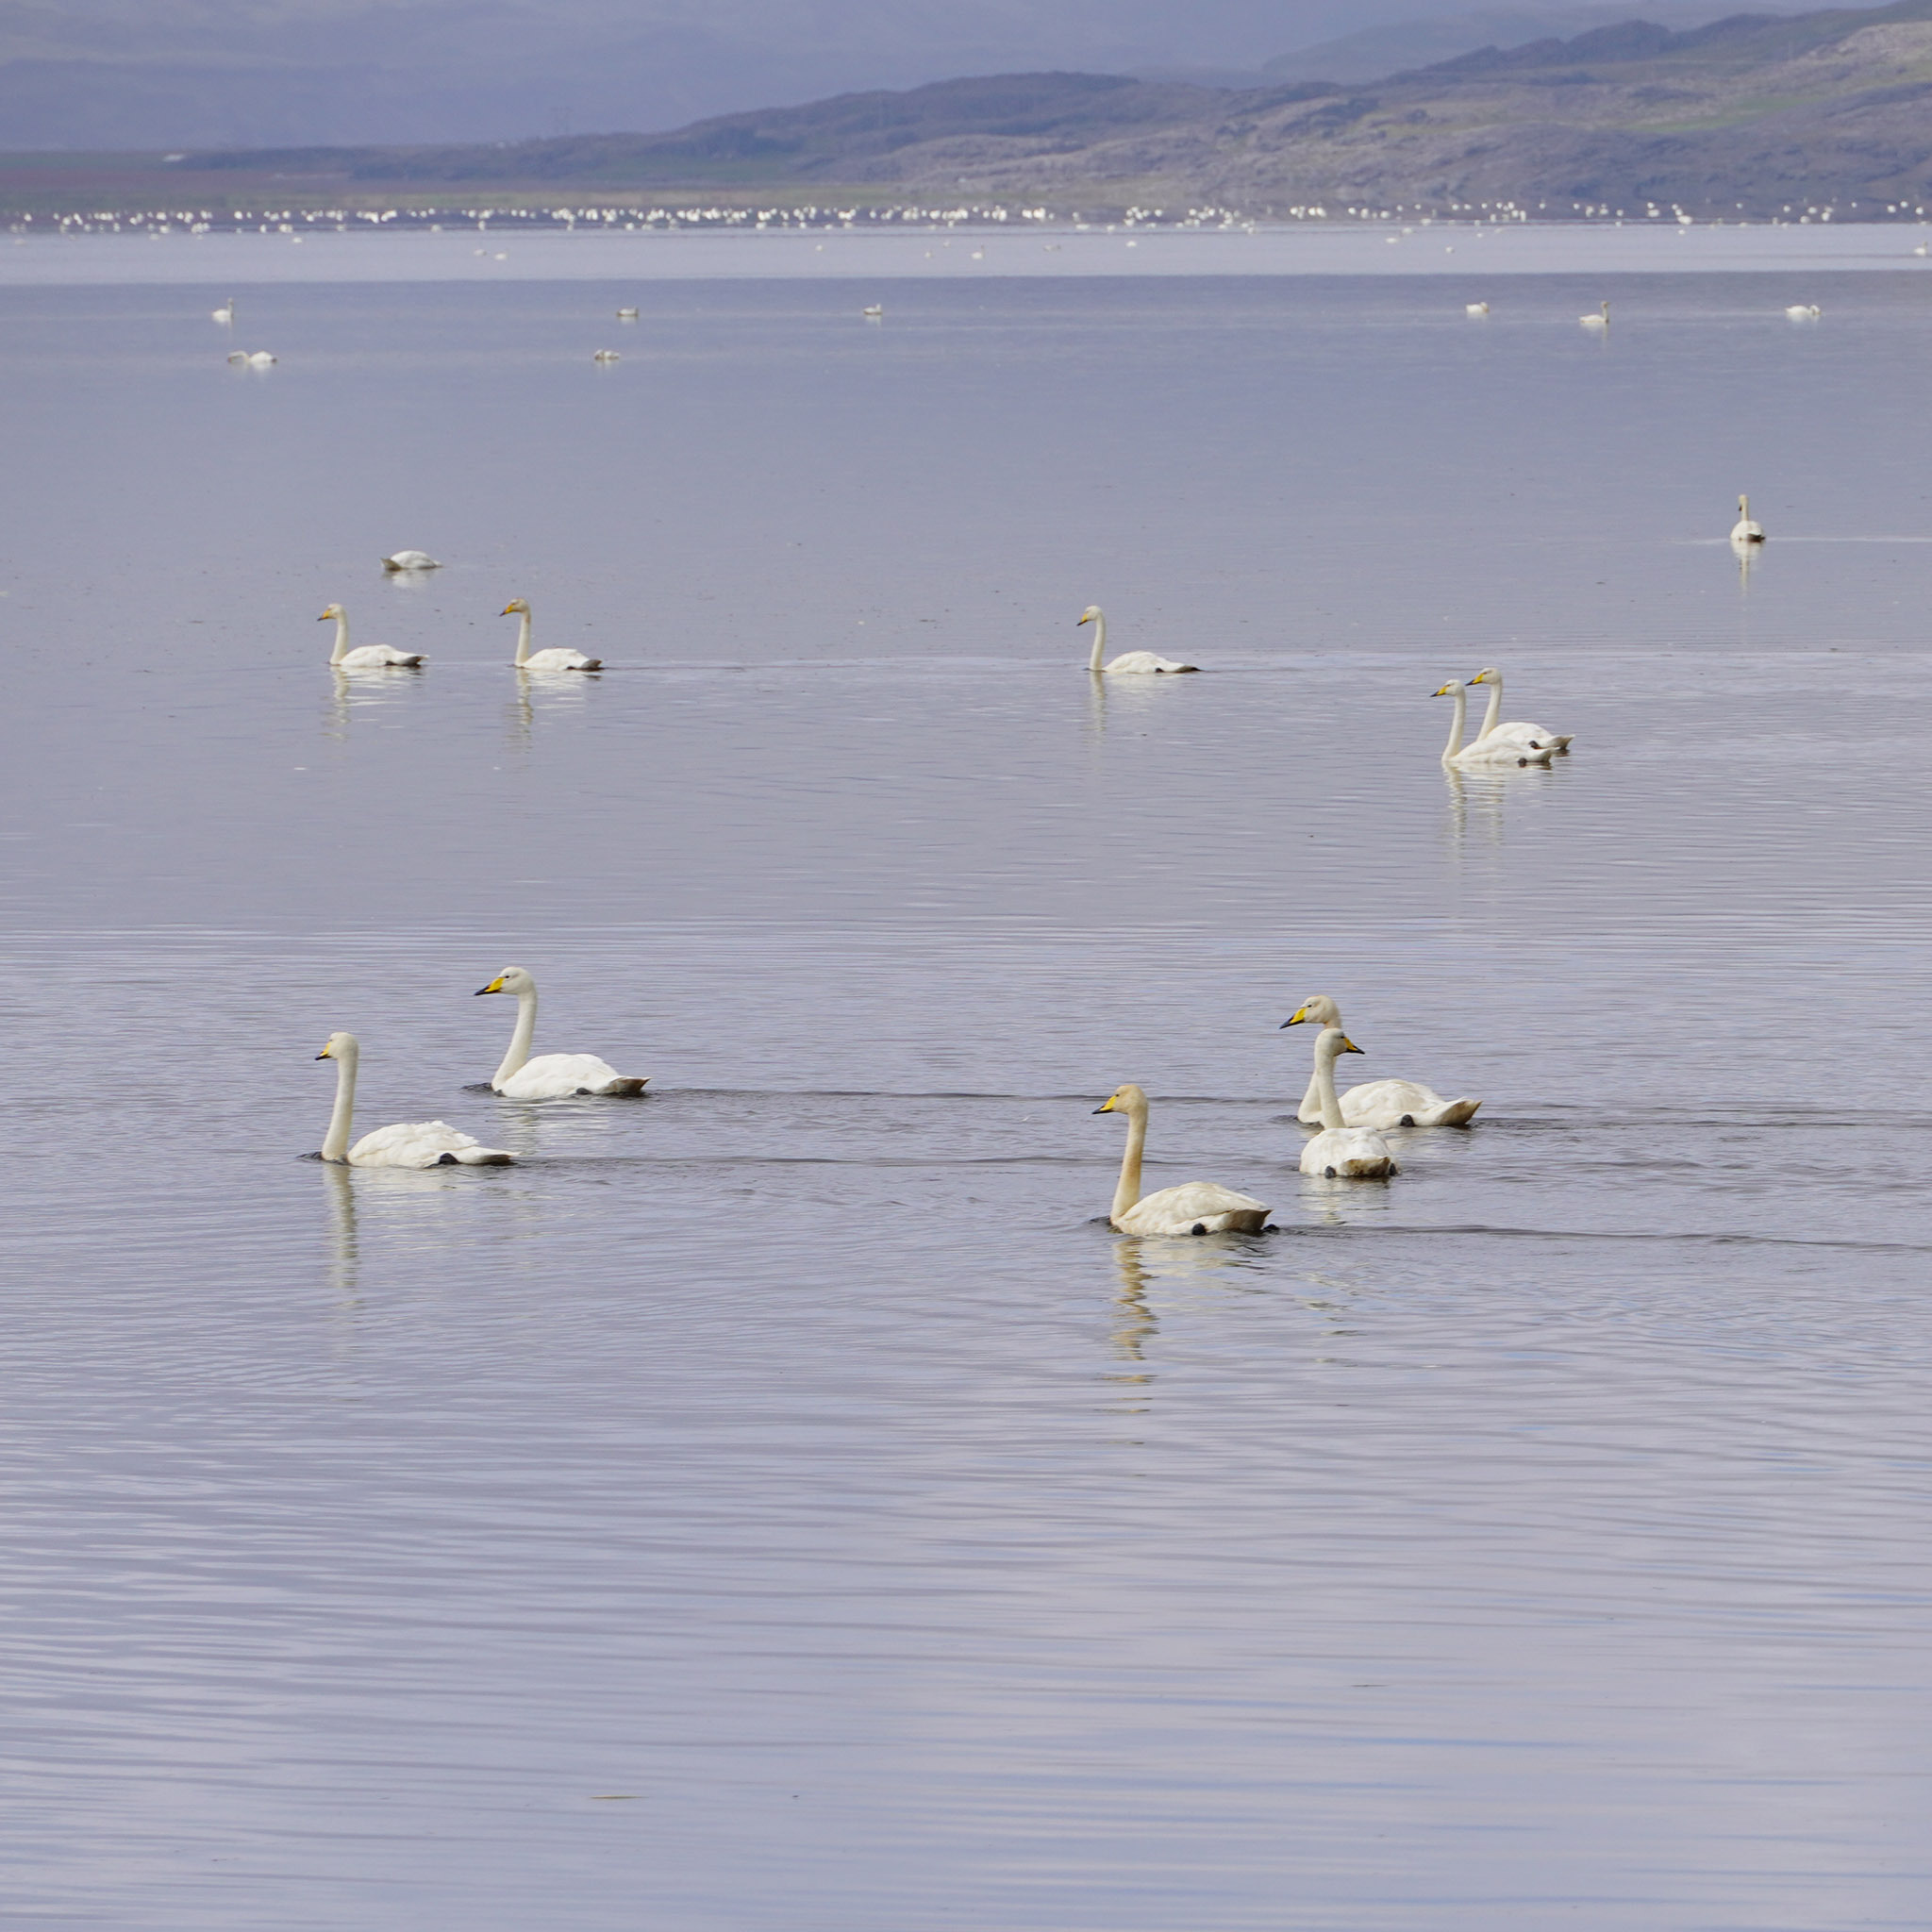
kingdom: Animalia
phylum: Chordata
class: Aves
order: Anseriformes
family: Anatidae
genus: Cygnus
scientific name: Cygnus cygnus
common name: Whooper swan
